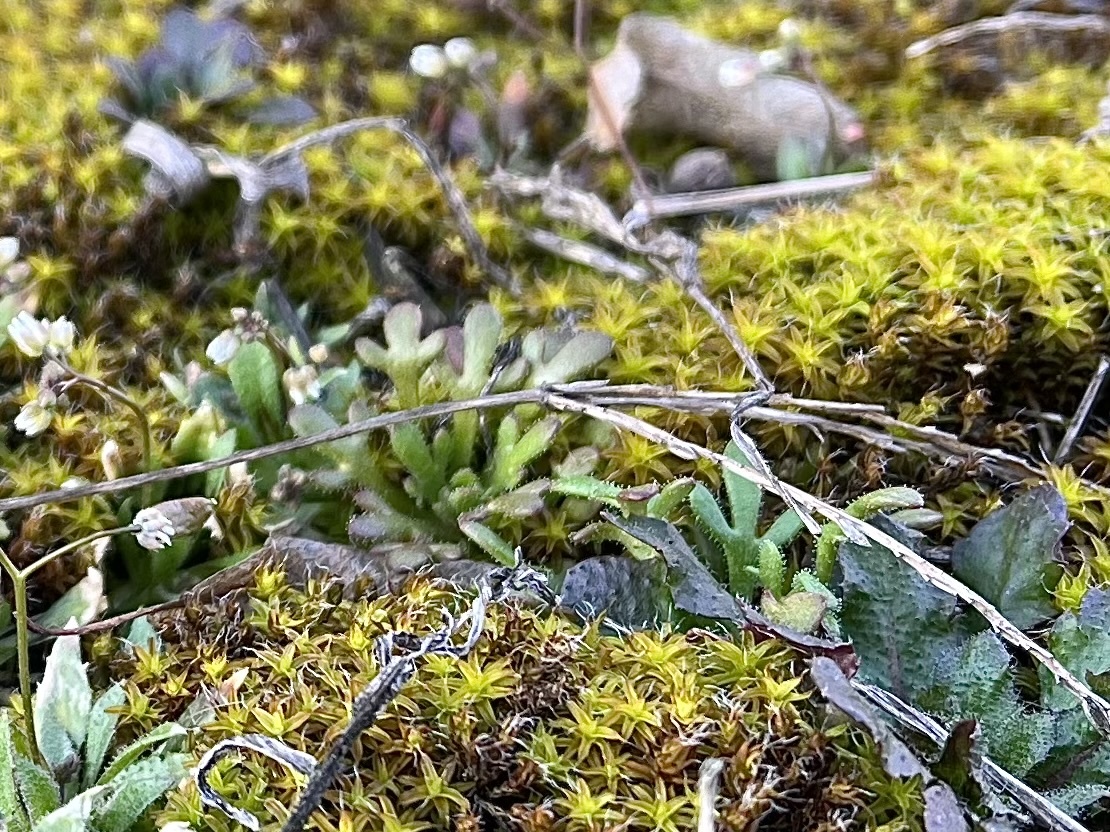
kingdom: Plantae
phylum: Tracheophyta
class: Magnoliopsida
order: Saxifragales
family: Saxifragaceae
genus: Saxifraga
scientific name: Saxifraga tridactylites
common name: Rue-leaved saxifrage
